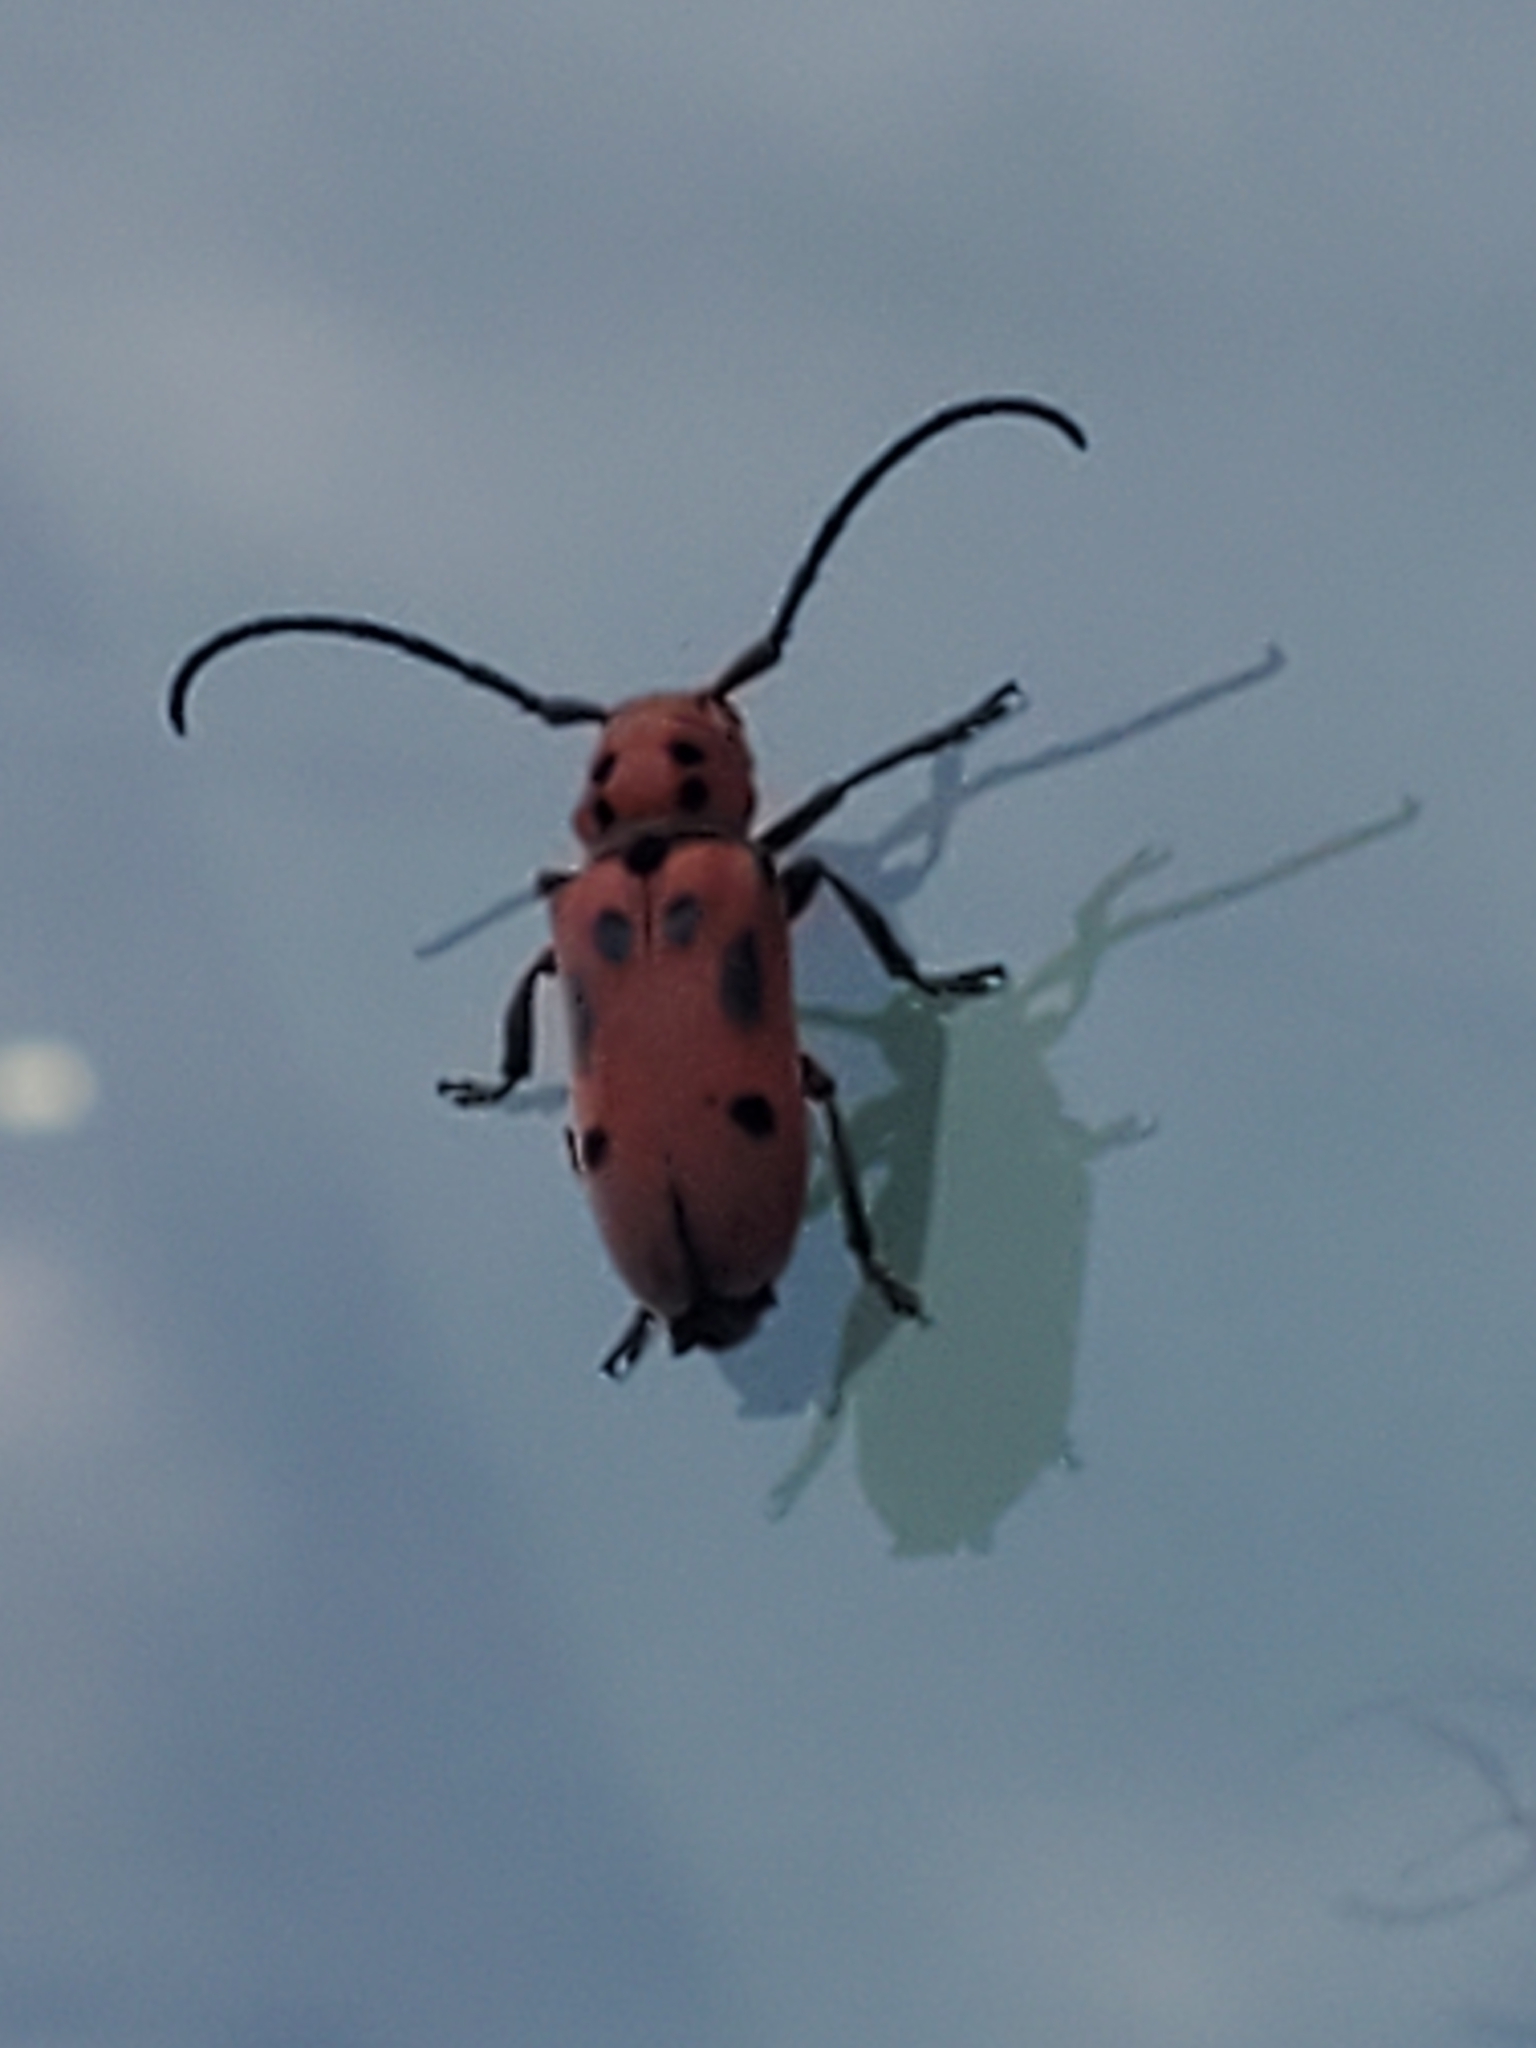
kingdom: Animalia
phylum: Arthropoda
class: Insecta
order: Coleoptera
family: Cerambycidae
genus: Tetraopes
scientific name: Tetraopes tetrophthalmus
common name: Red milkweed beetle
